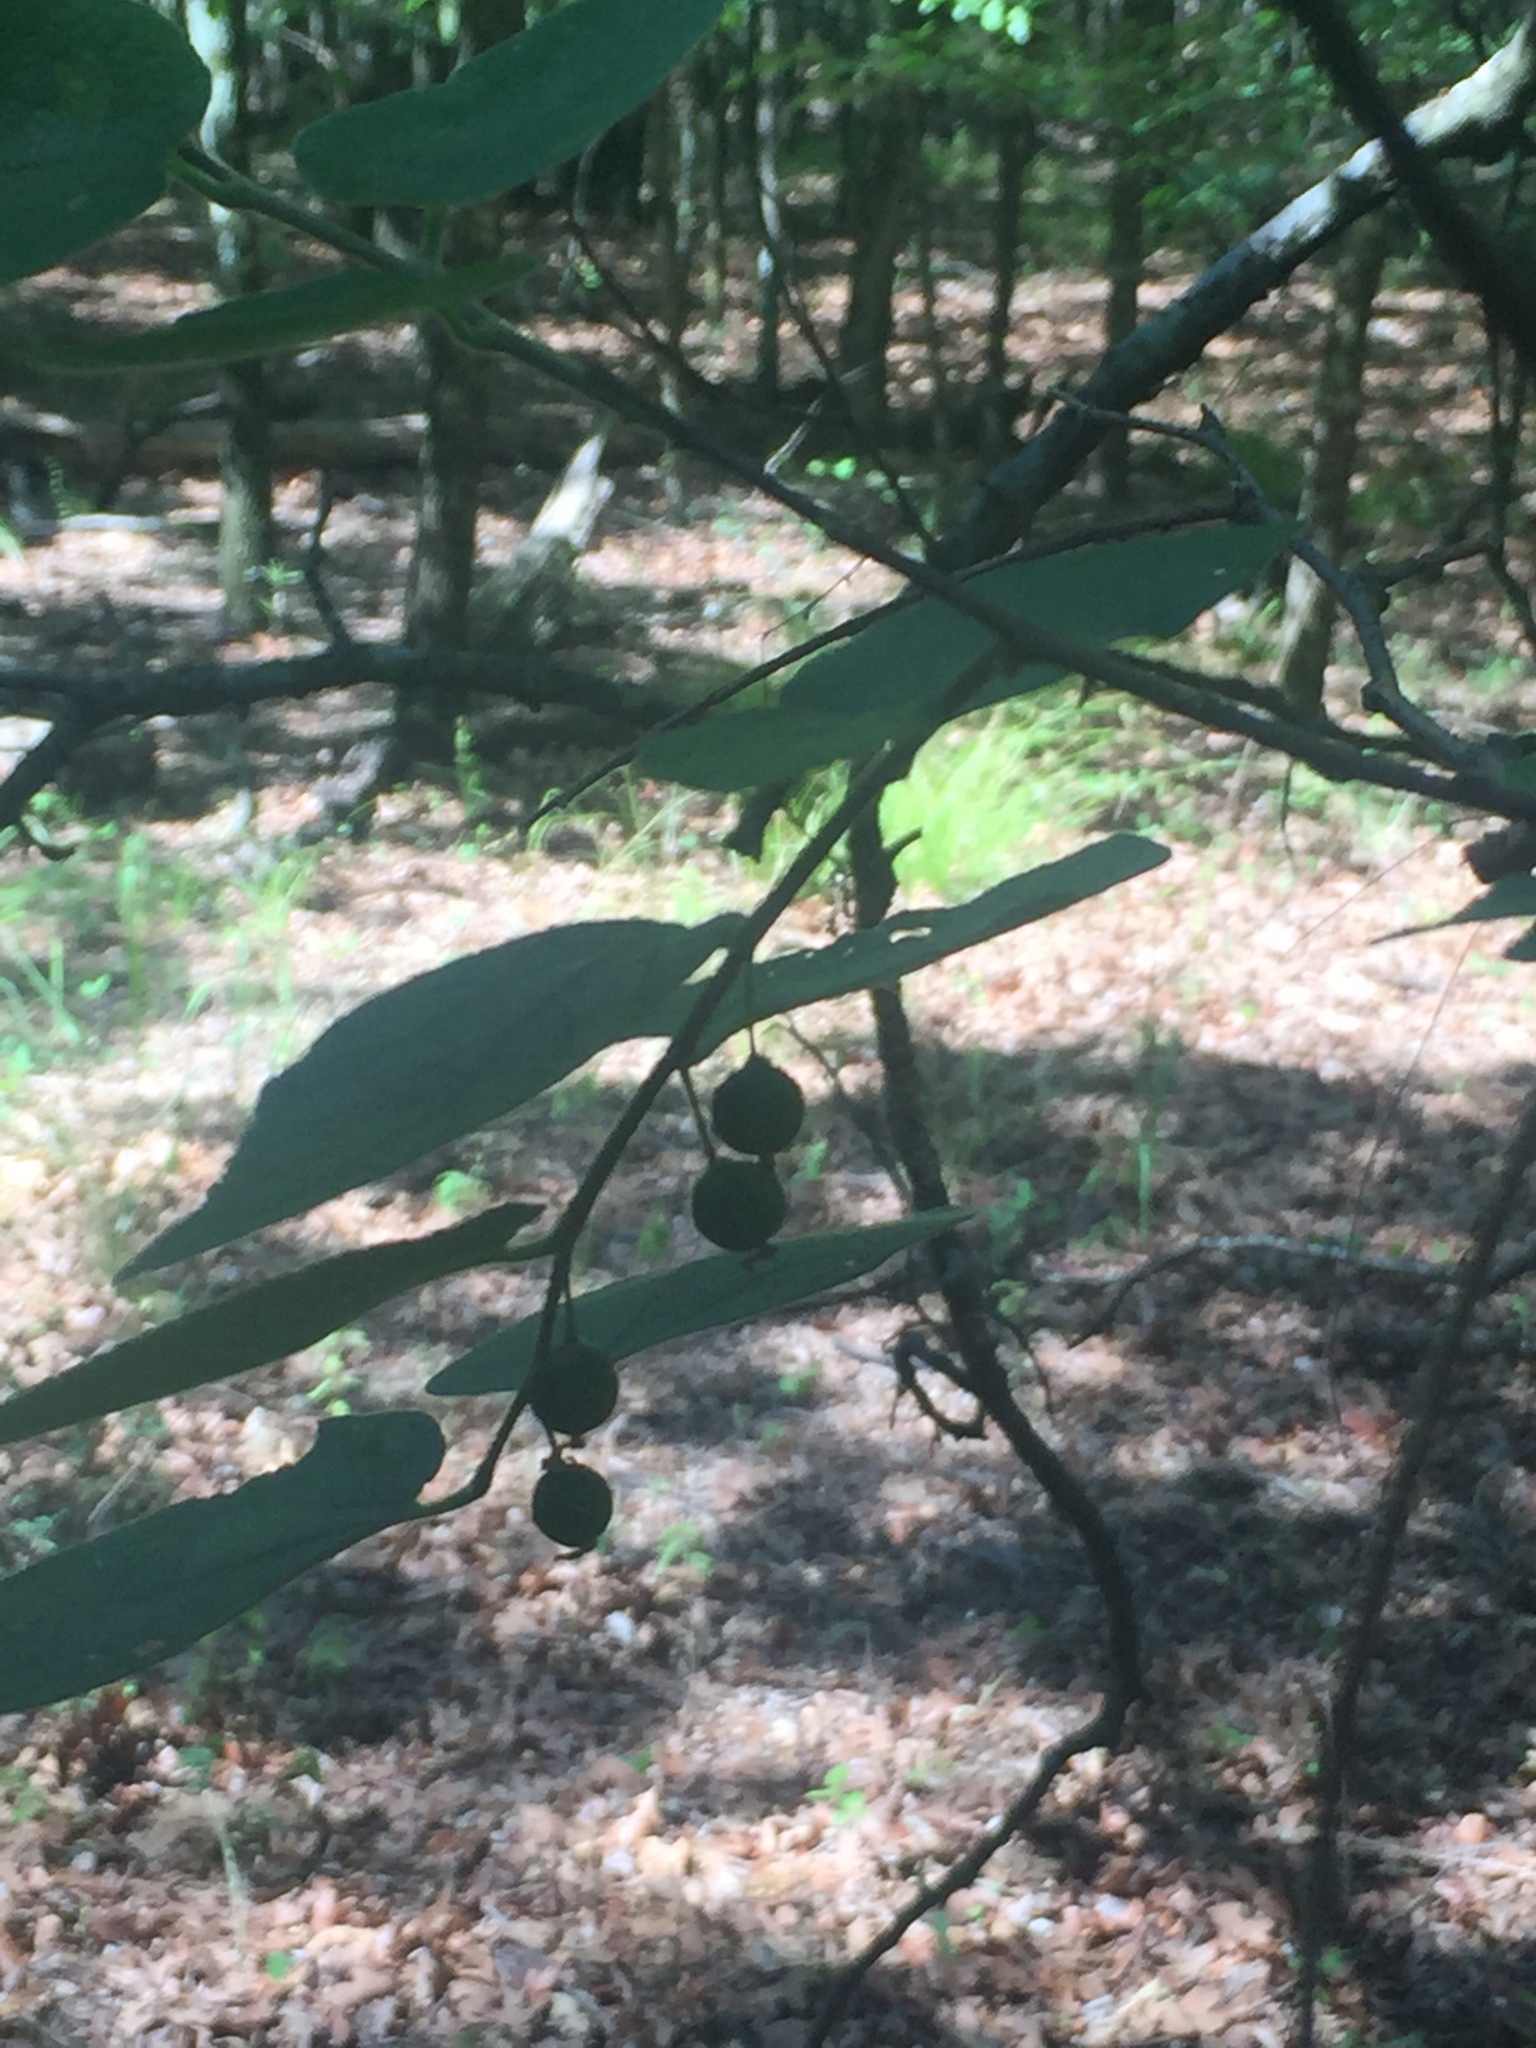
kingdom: Plantae
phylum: Tracheophyta
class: Magnoliopsida
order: Rosales
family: Cannabaceae
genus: Celtis
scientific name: Celtis laevigata
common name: Sugarberry
